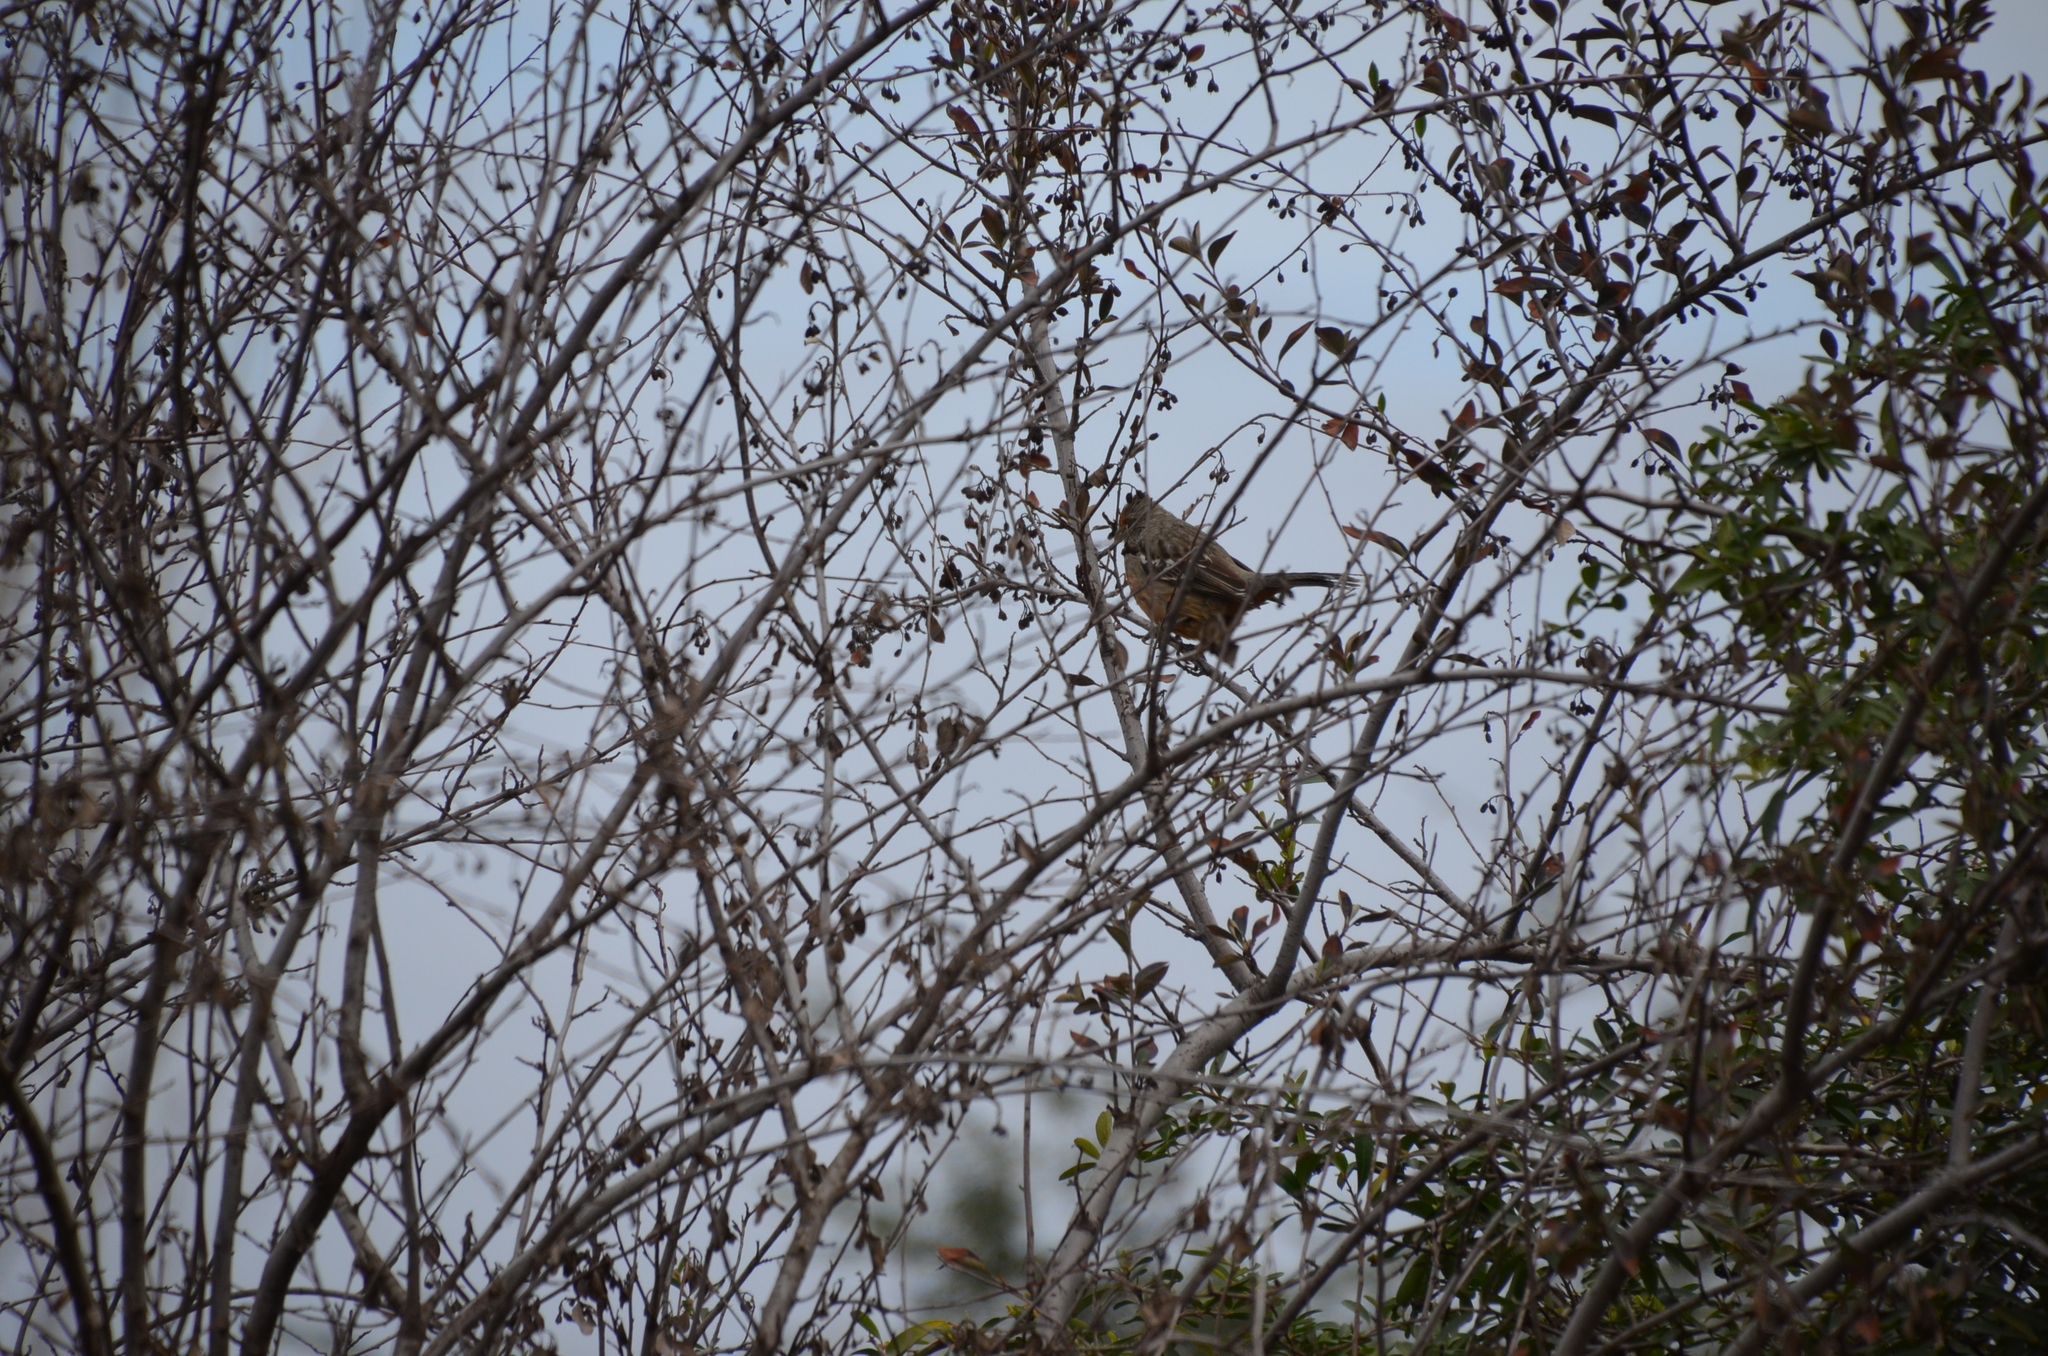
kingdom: Animalia
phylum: Chordata
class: Aves
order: Passeriformes
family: Cotingidae
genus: Phytotoma
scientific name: Phytotoma rutila
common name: White-tipped plantcutter
